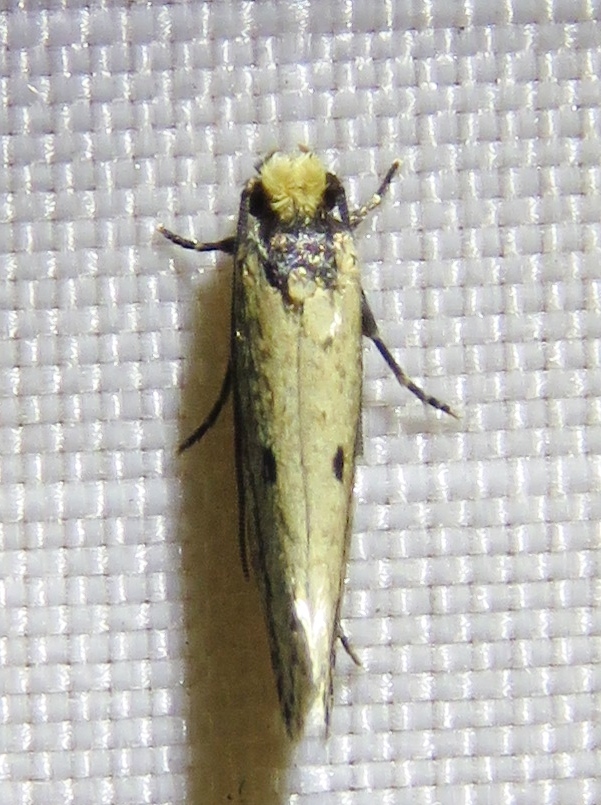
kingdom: Animalia
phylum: Arthropoda
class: Insecta
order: Lepidoptera
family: Tineidae
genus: Tinea
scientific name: Tinea apicimaculella
